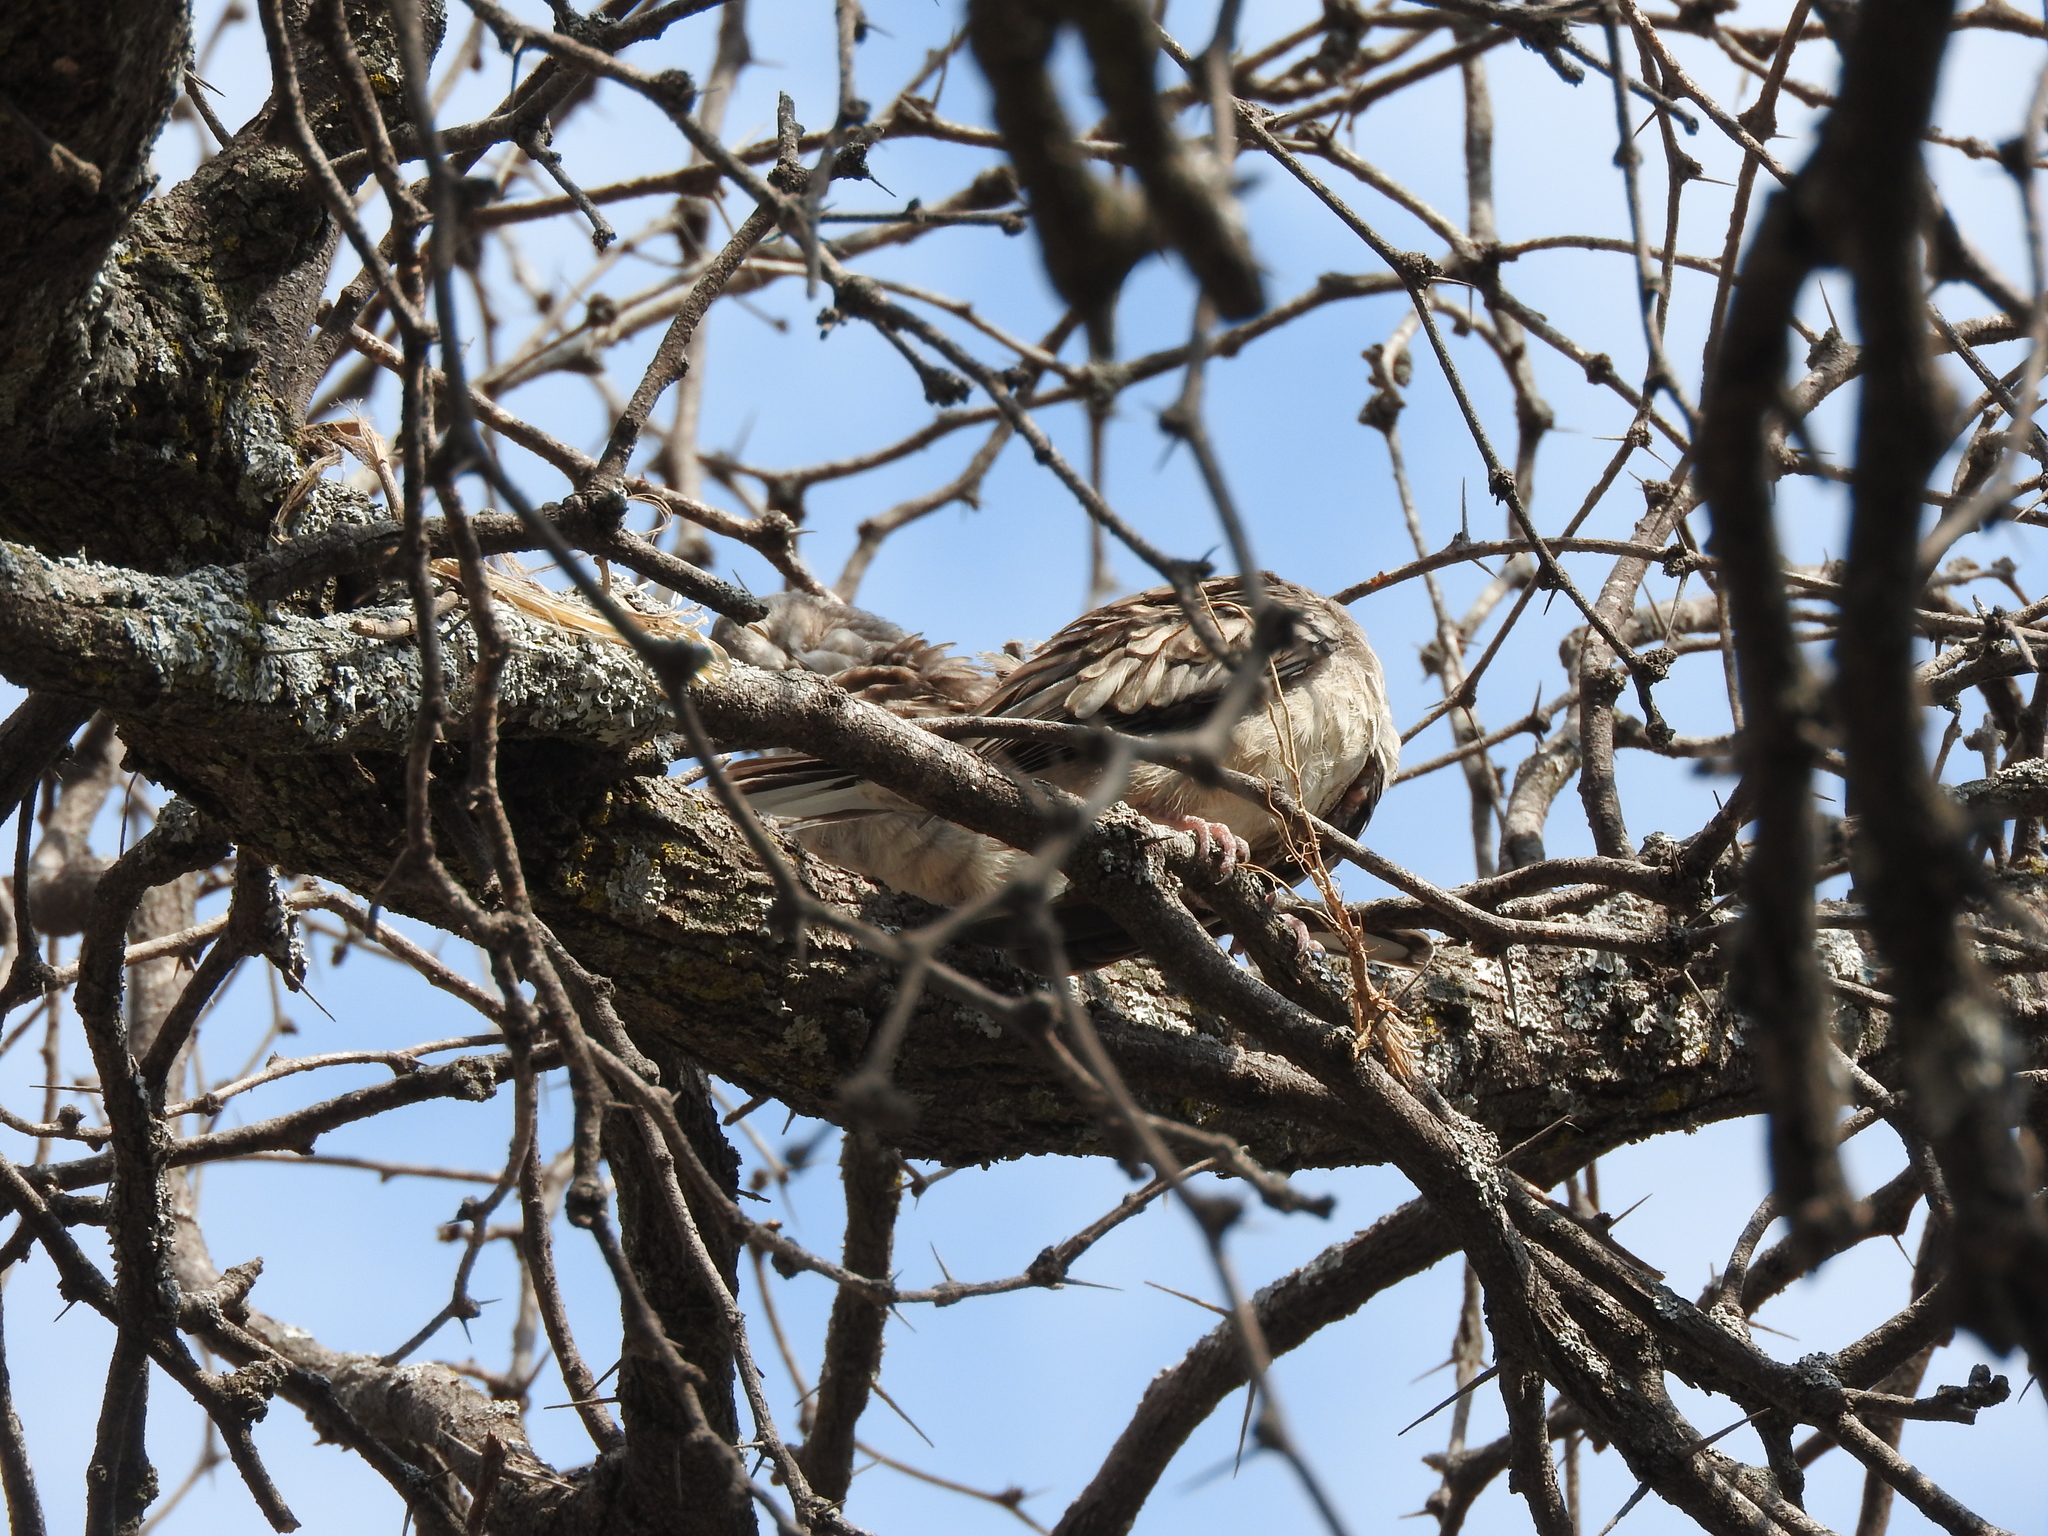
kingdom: Animalia
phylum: Chordata
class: Aves
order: Columbiformes
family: Columbidae
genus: Columbina
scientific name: Columbina inca
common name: Inca dove
